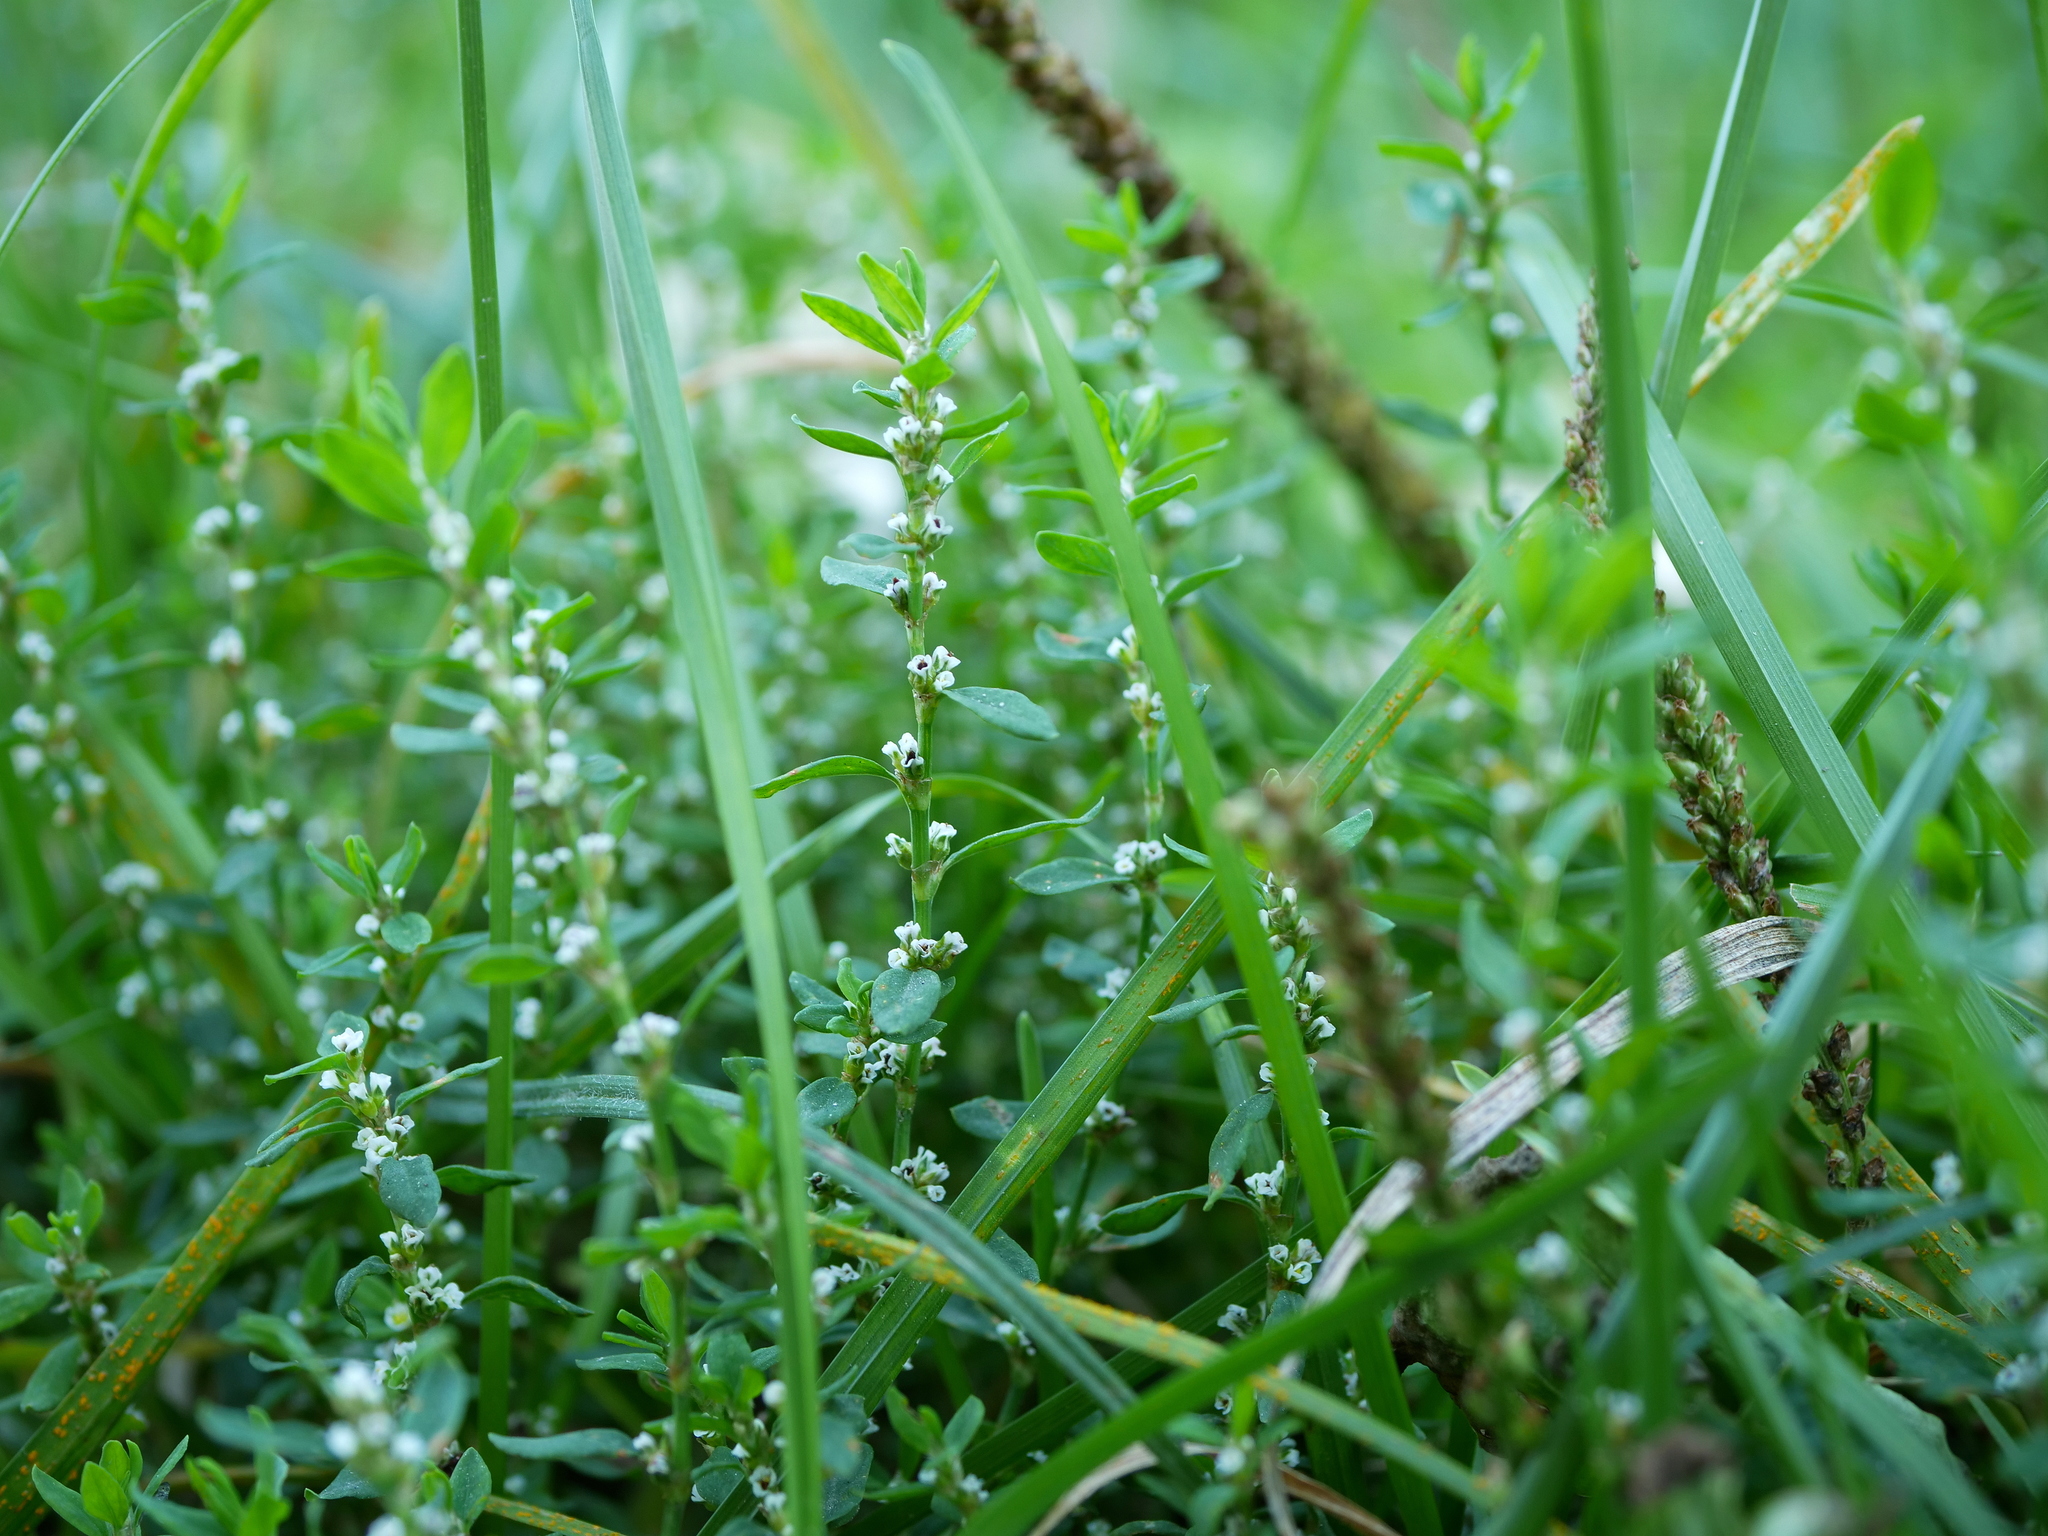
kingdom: Plantae
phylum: Tracheophyta
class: Magnoliopsida
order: Caryophyllales
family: Polygonaceae
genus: Polygonum
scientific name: Polygonum arenastrum
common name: Equal-leaved knotgrass
